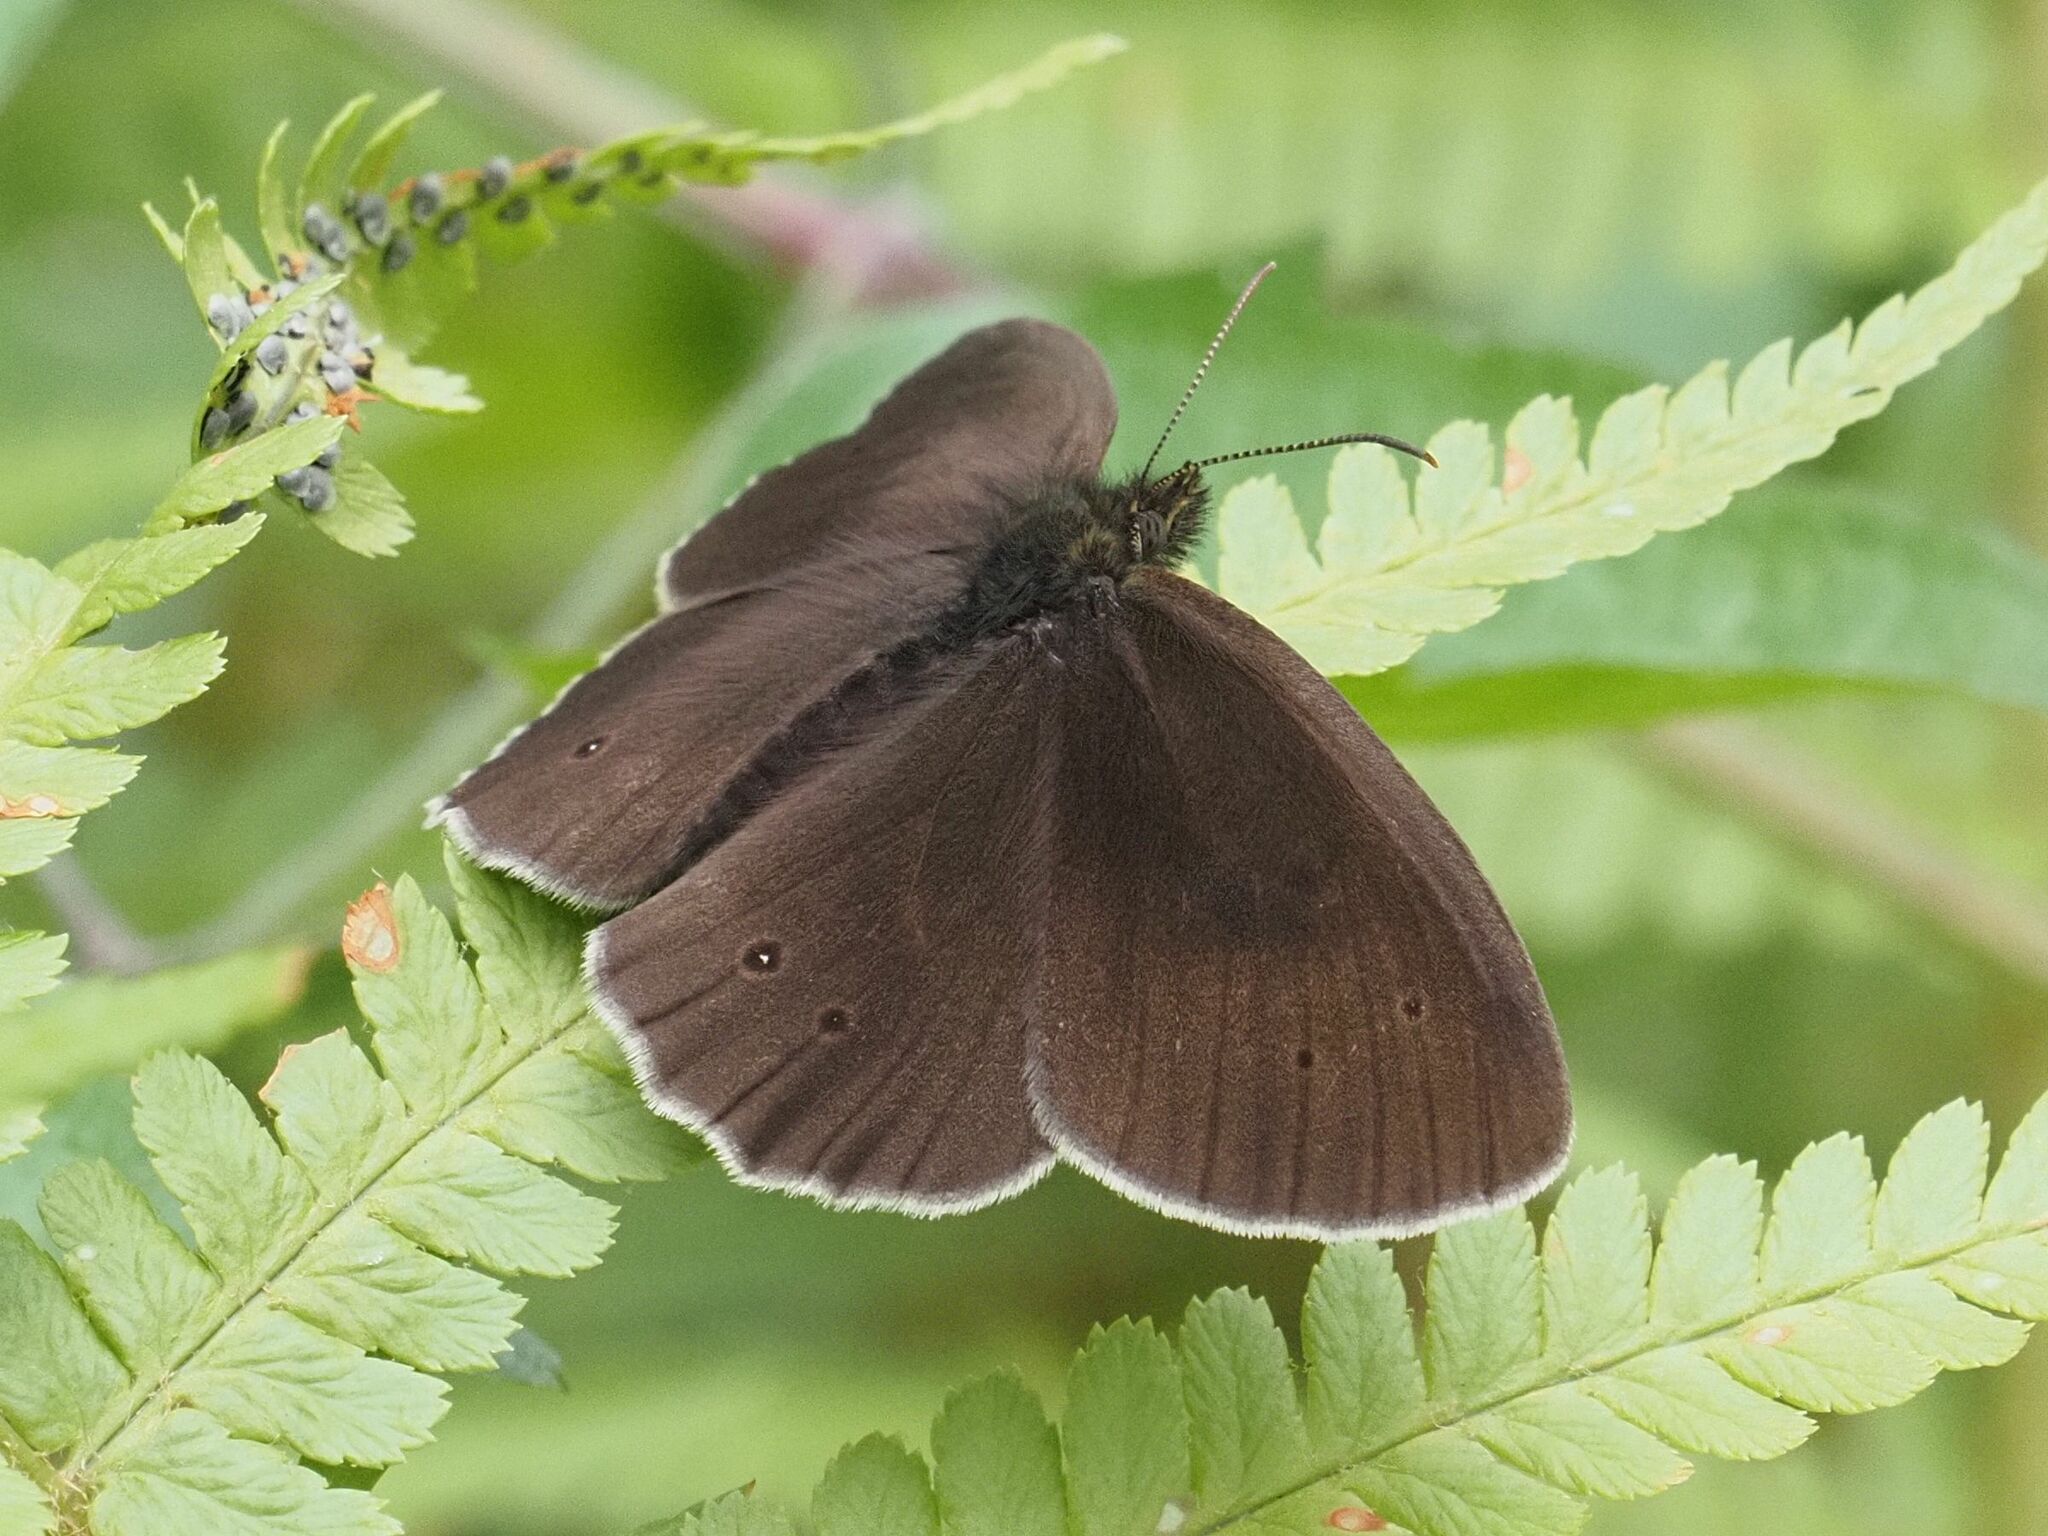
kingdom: Animalia
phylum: Arthropoda
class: Insecta
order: Lepidoptera
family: Nymphalidae
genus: Aphantopus
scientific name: Aphantopus hyperantus
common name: Ringlet
